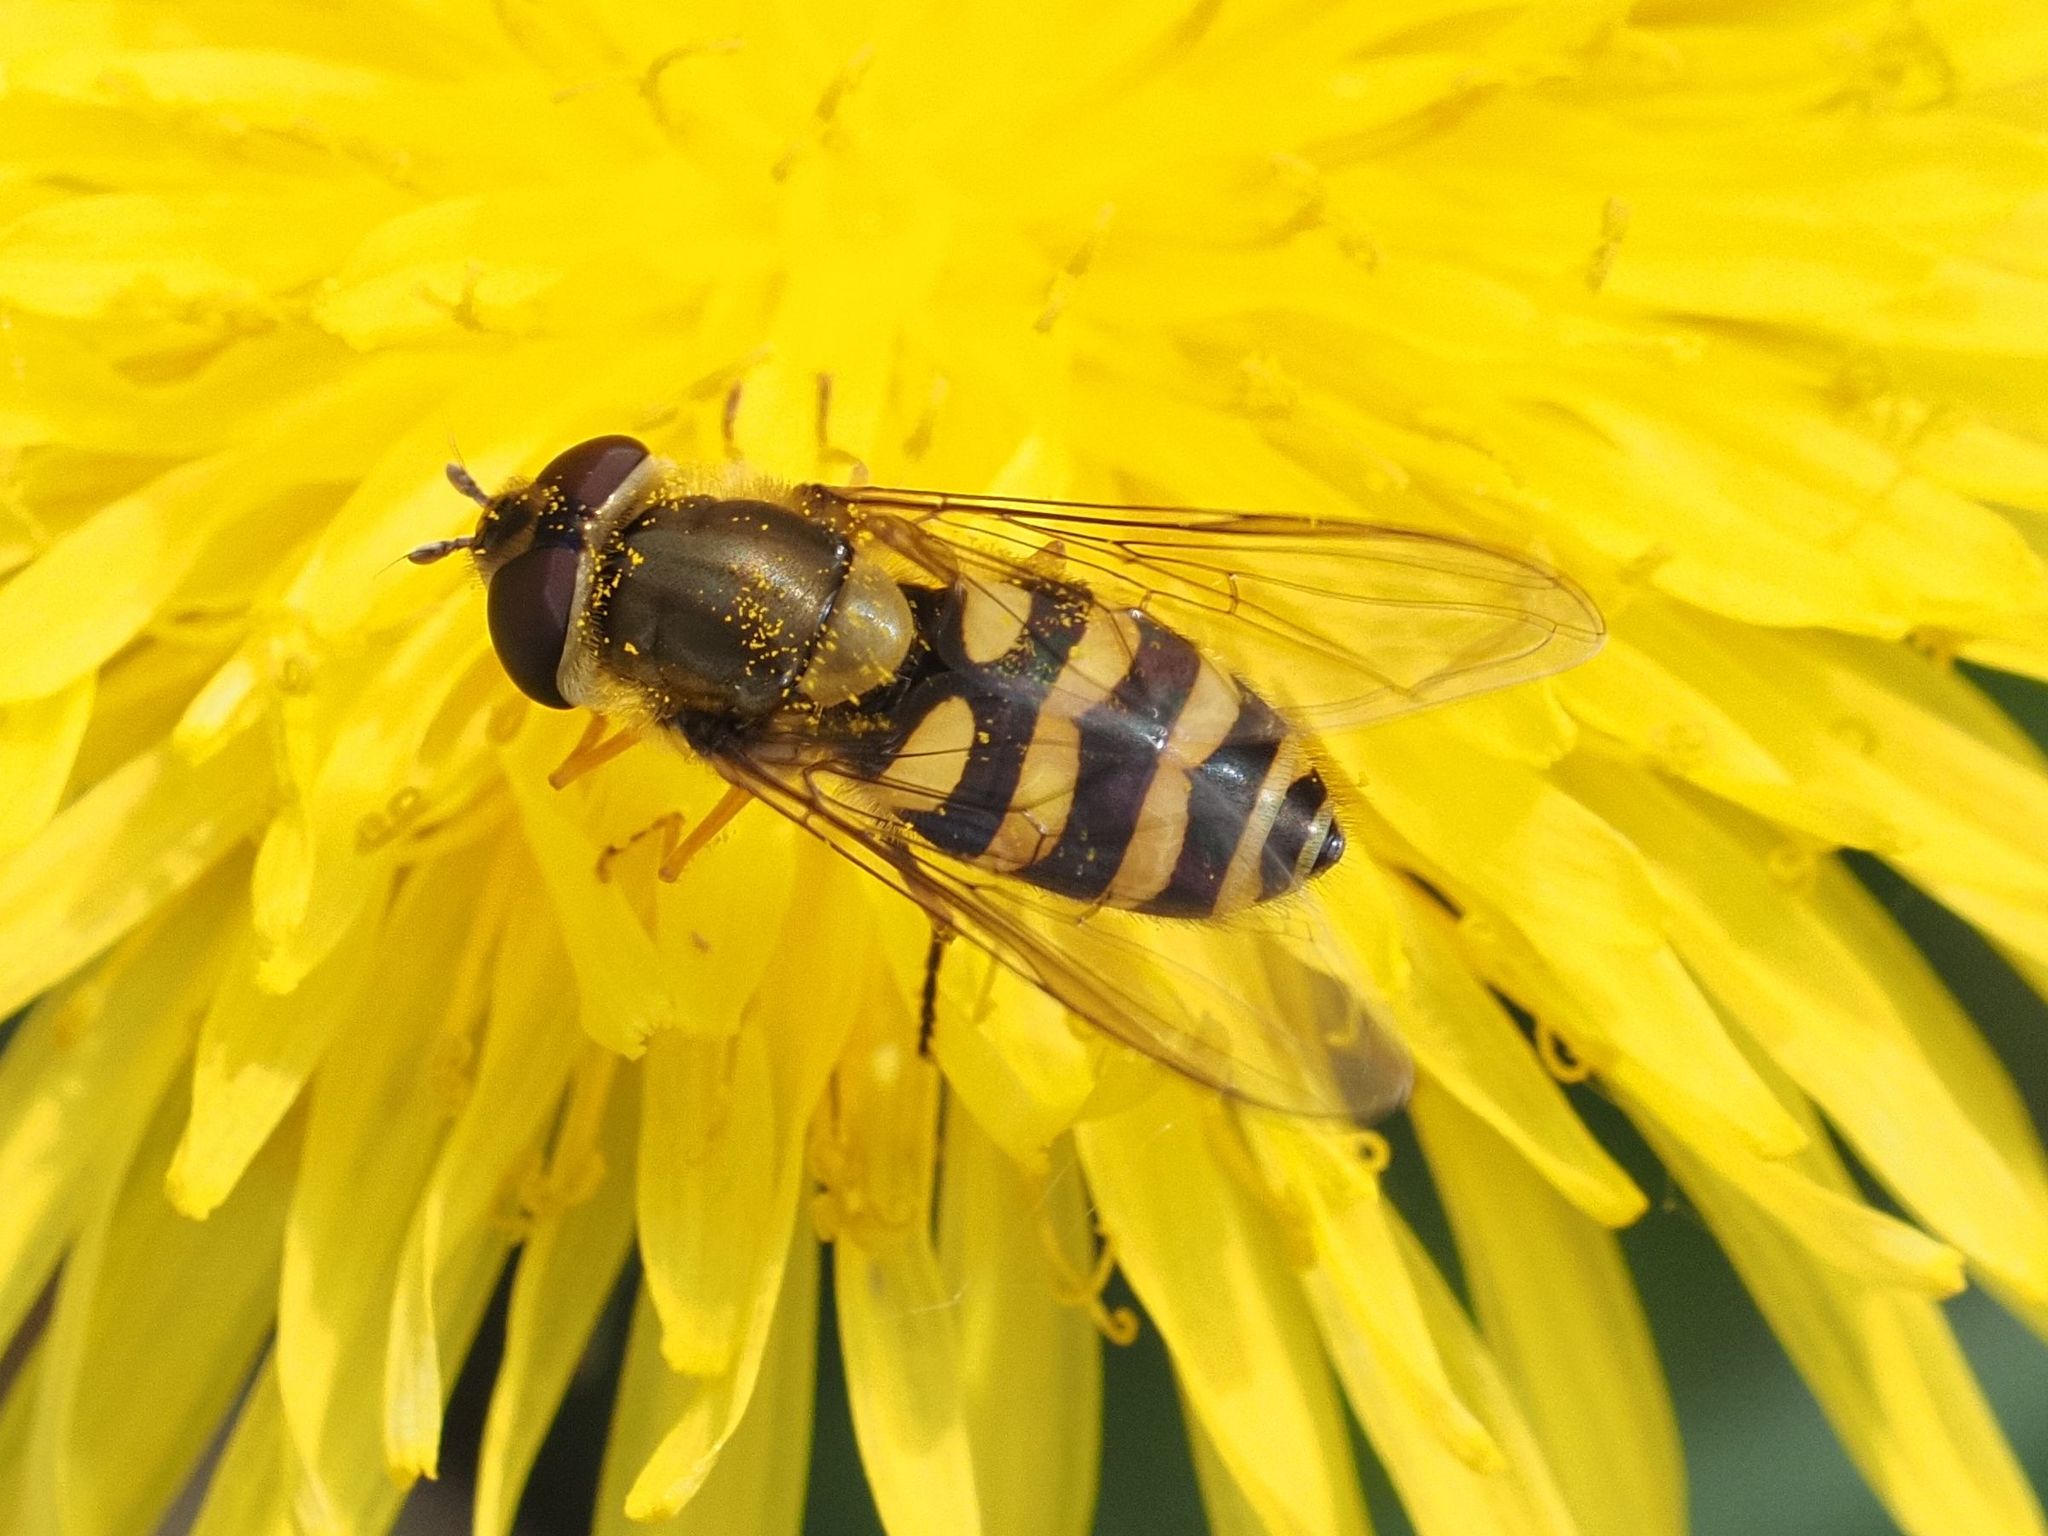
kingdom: Animalia
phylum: Arthropoda
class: Insecta
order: Diptera
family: Syrphidae
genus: Syrphus
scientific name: Syrphus
